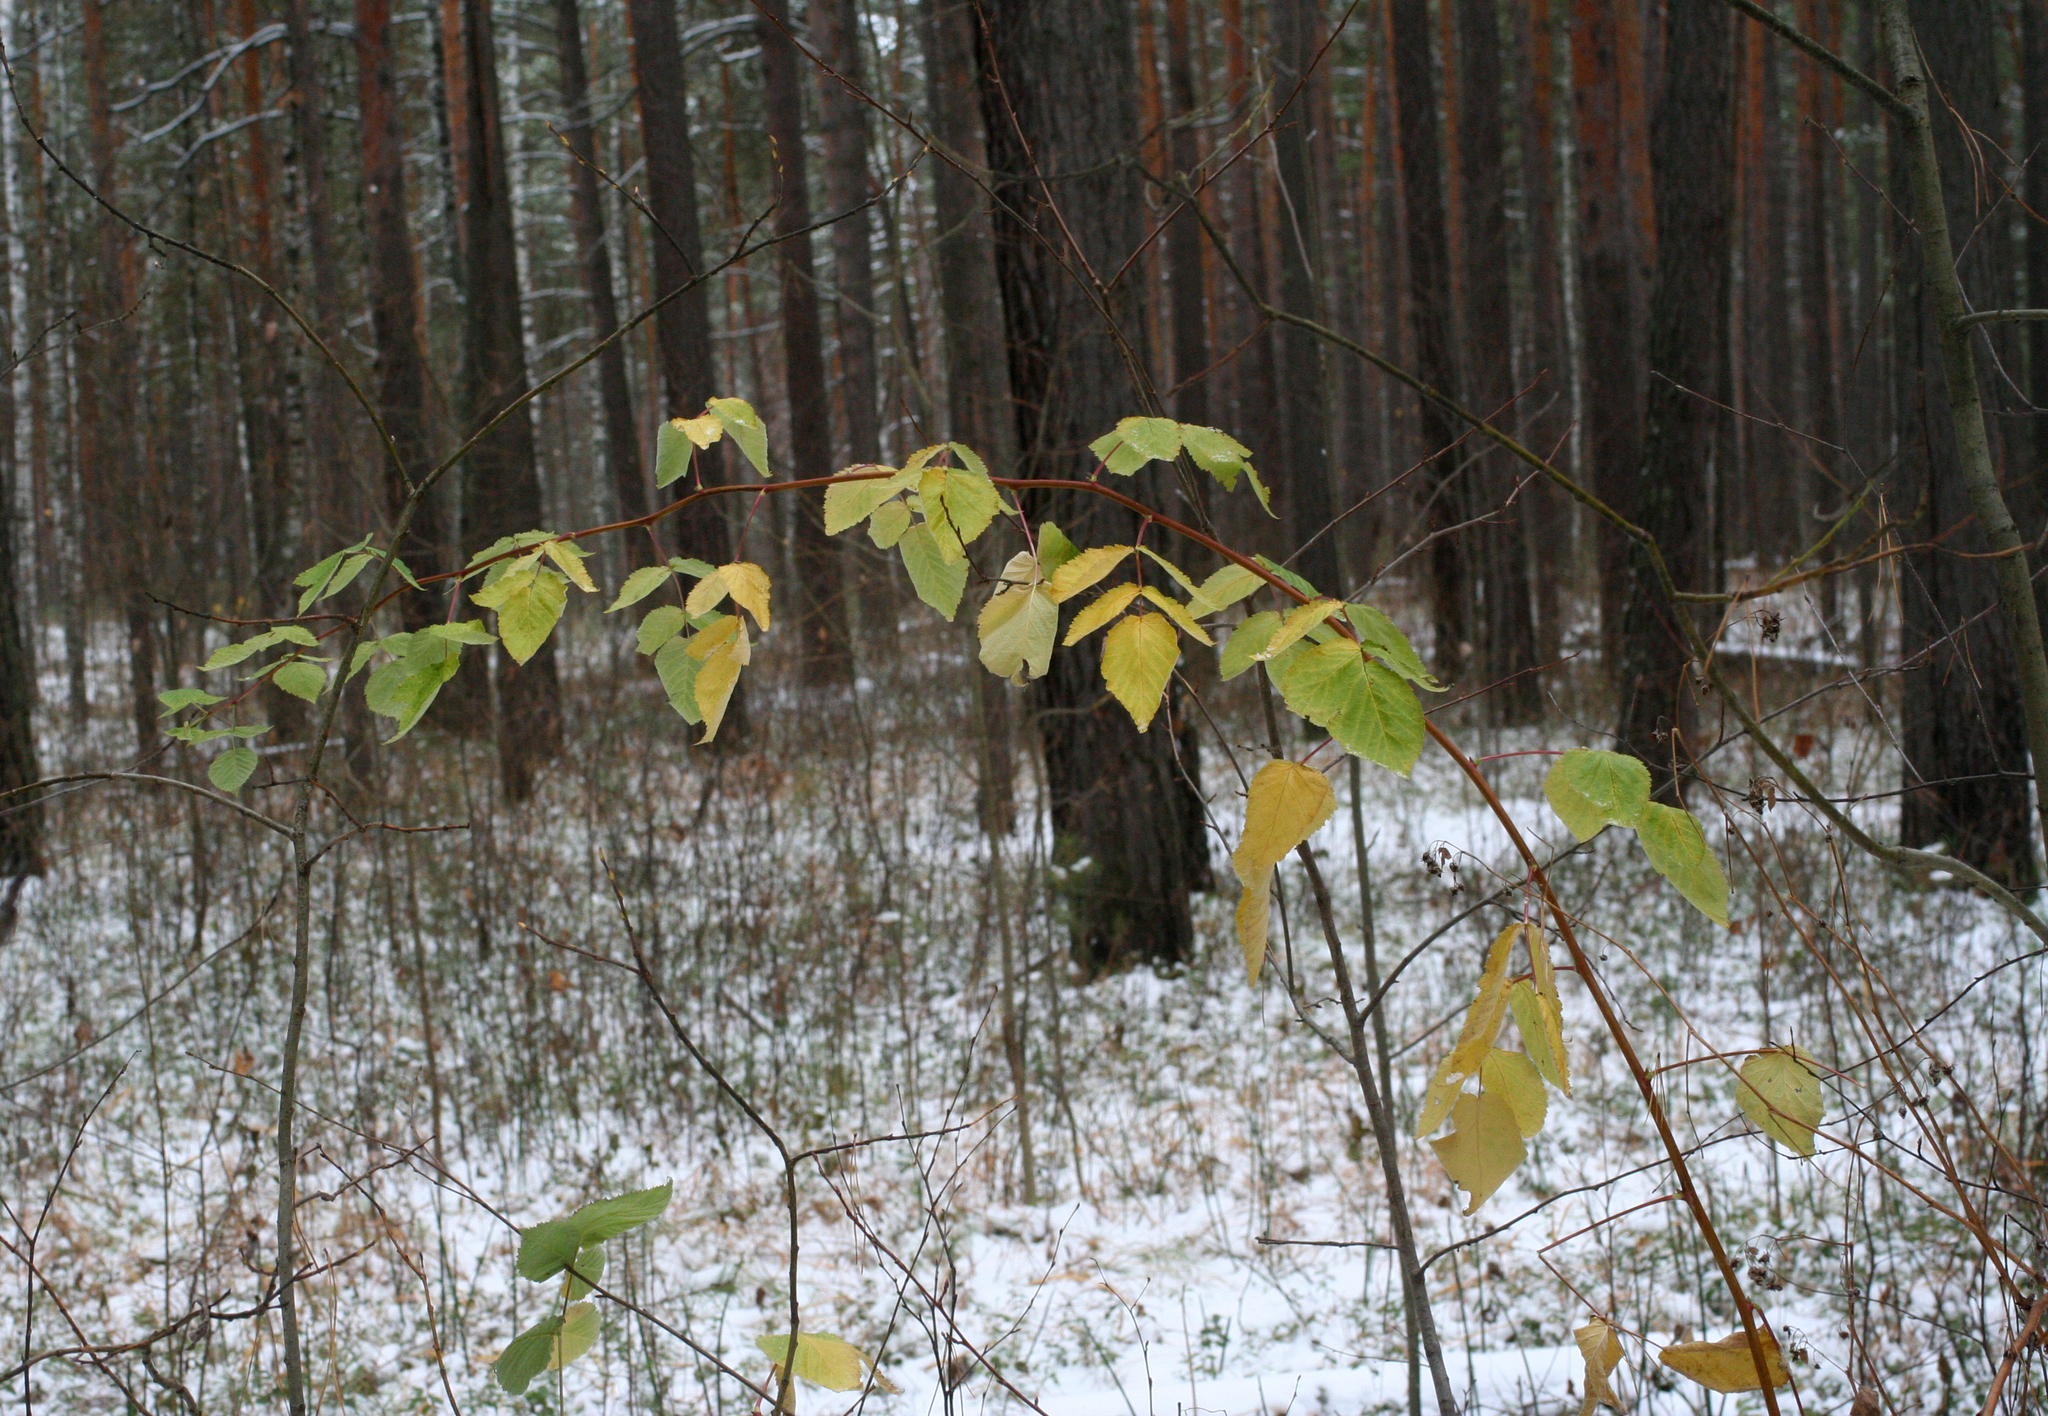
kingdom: Plantae
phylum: Tracheophyta
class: Magnoliopsida
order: Rosales
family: Rosaceae
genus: Rubus
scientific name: Rubus idaeus
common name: Raspberry
